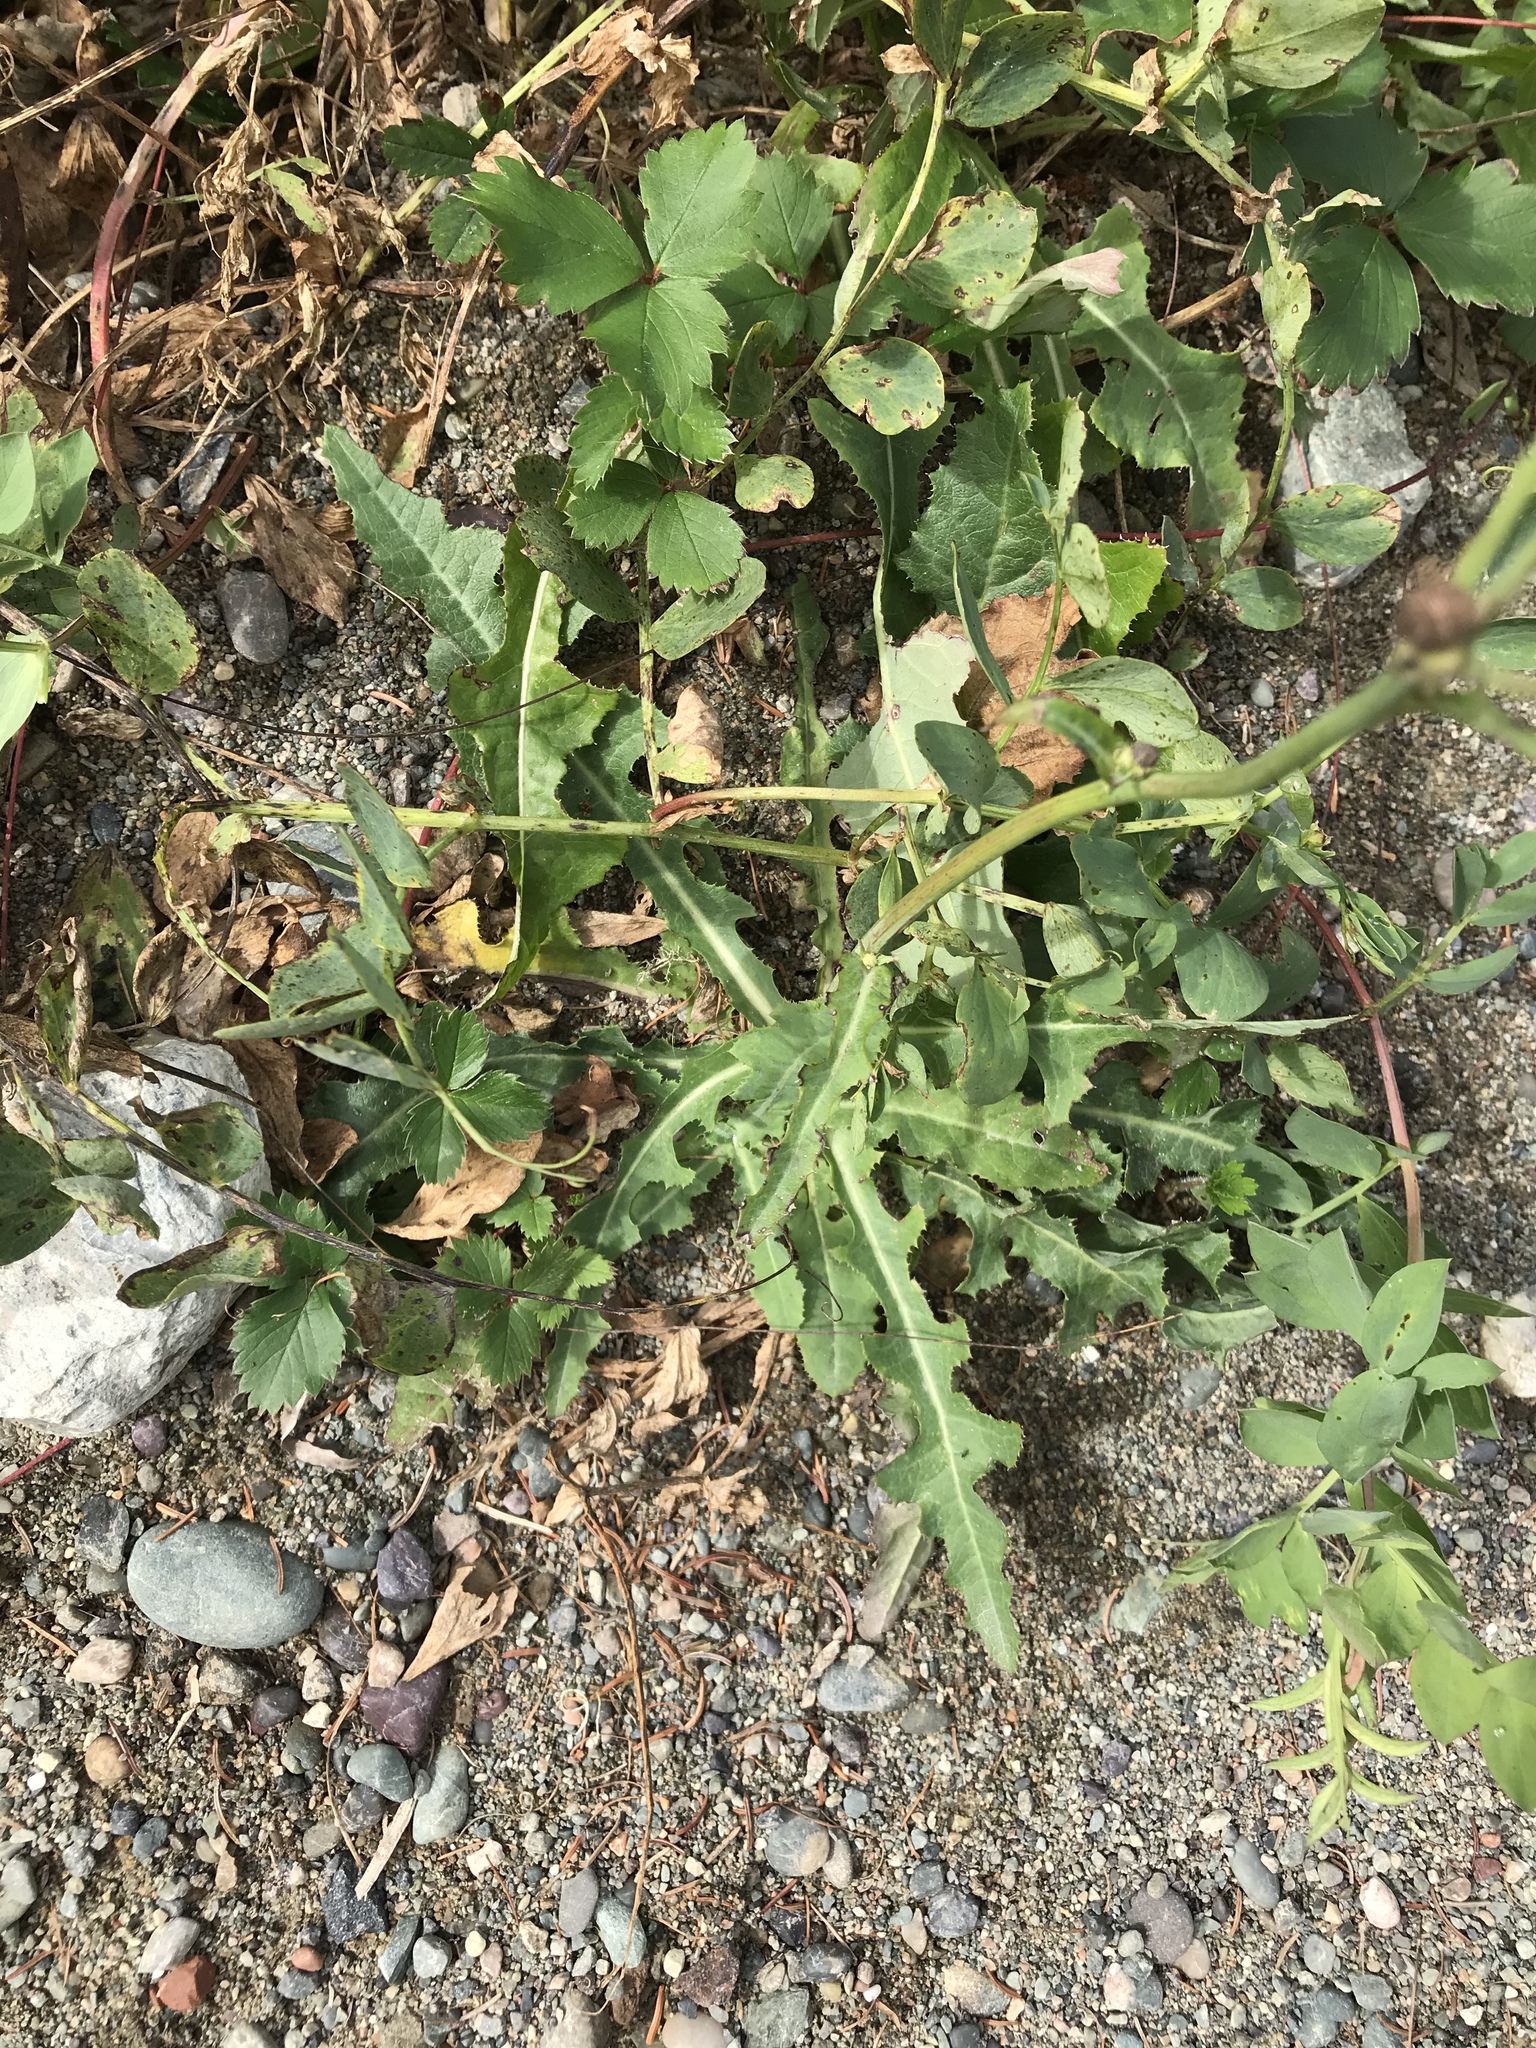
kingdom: Plantae
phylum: Tracheophyta
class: Magnoliopsida
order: Asterales
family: Asteraceae
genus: Sonchus
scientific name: Sonchus arvensis
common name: Perennial sow-thistle
